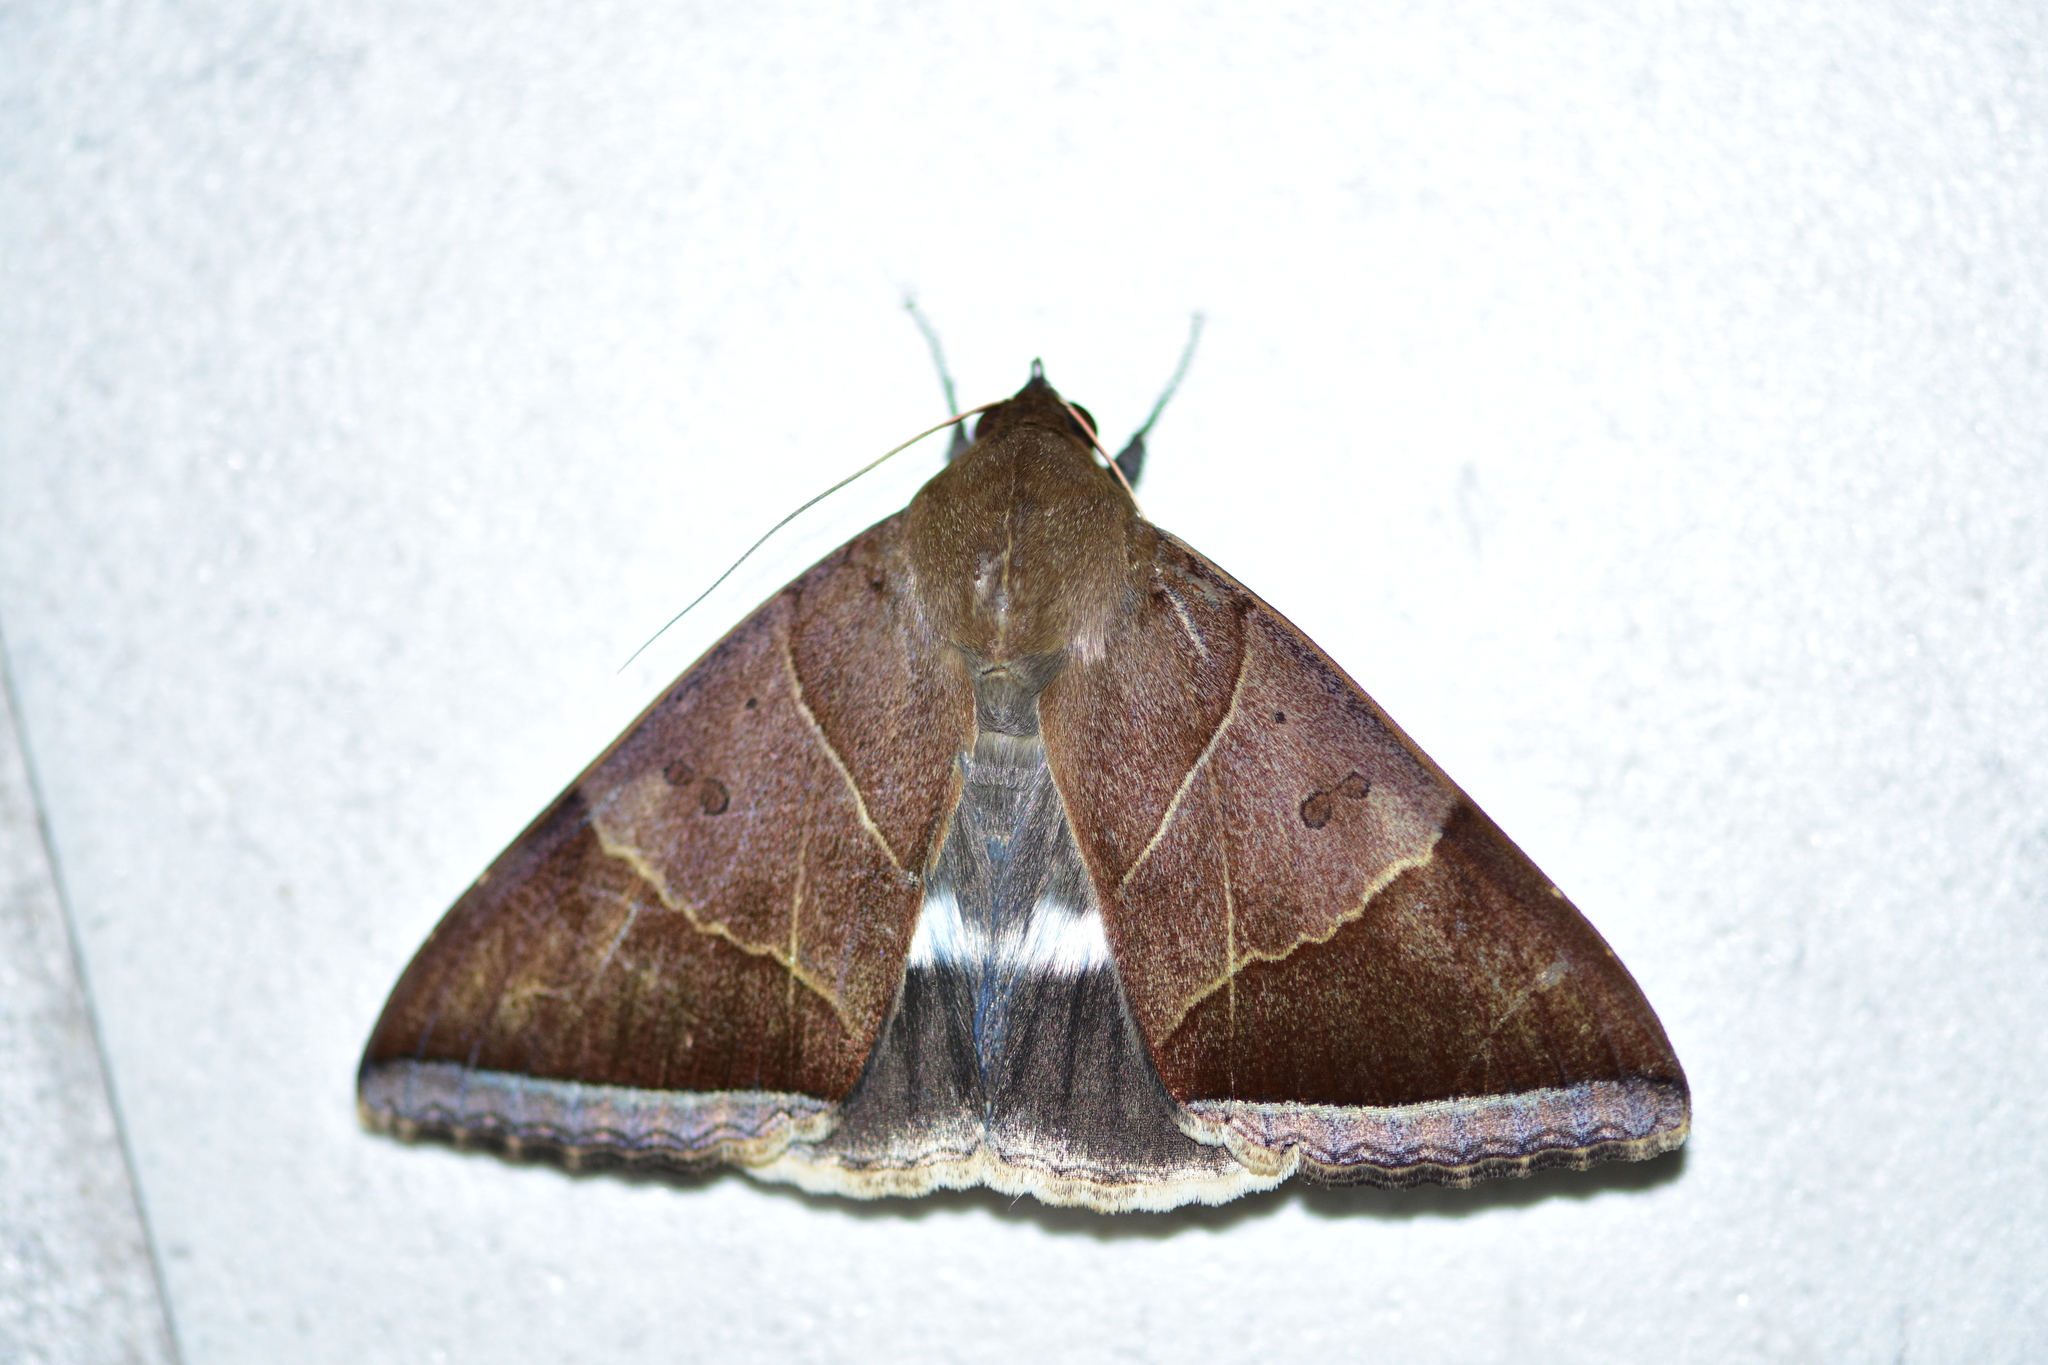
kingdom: Animalia
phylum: Arthropoda
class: Insecta
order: Lepidoptera
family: Erebidae
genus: Artena
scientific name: Artena dotata
